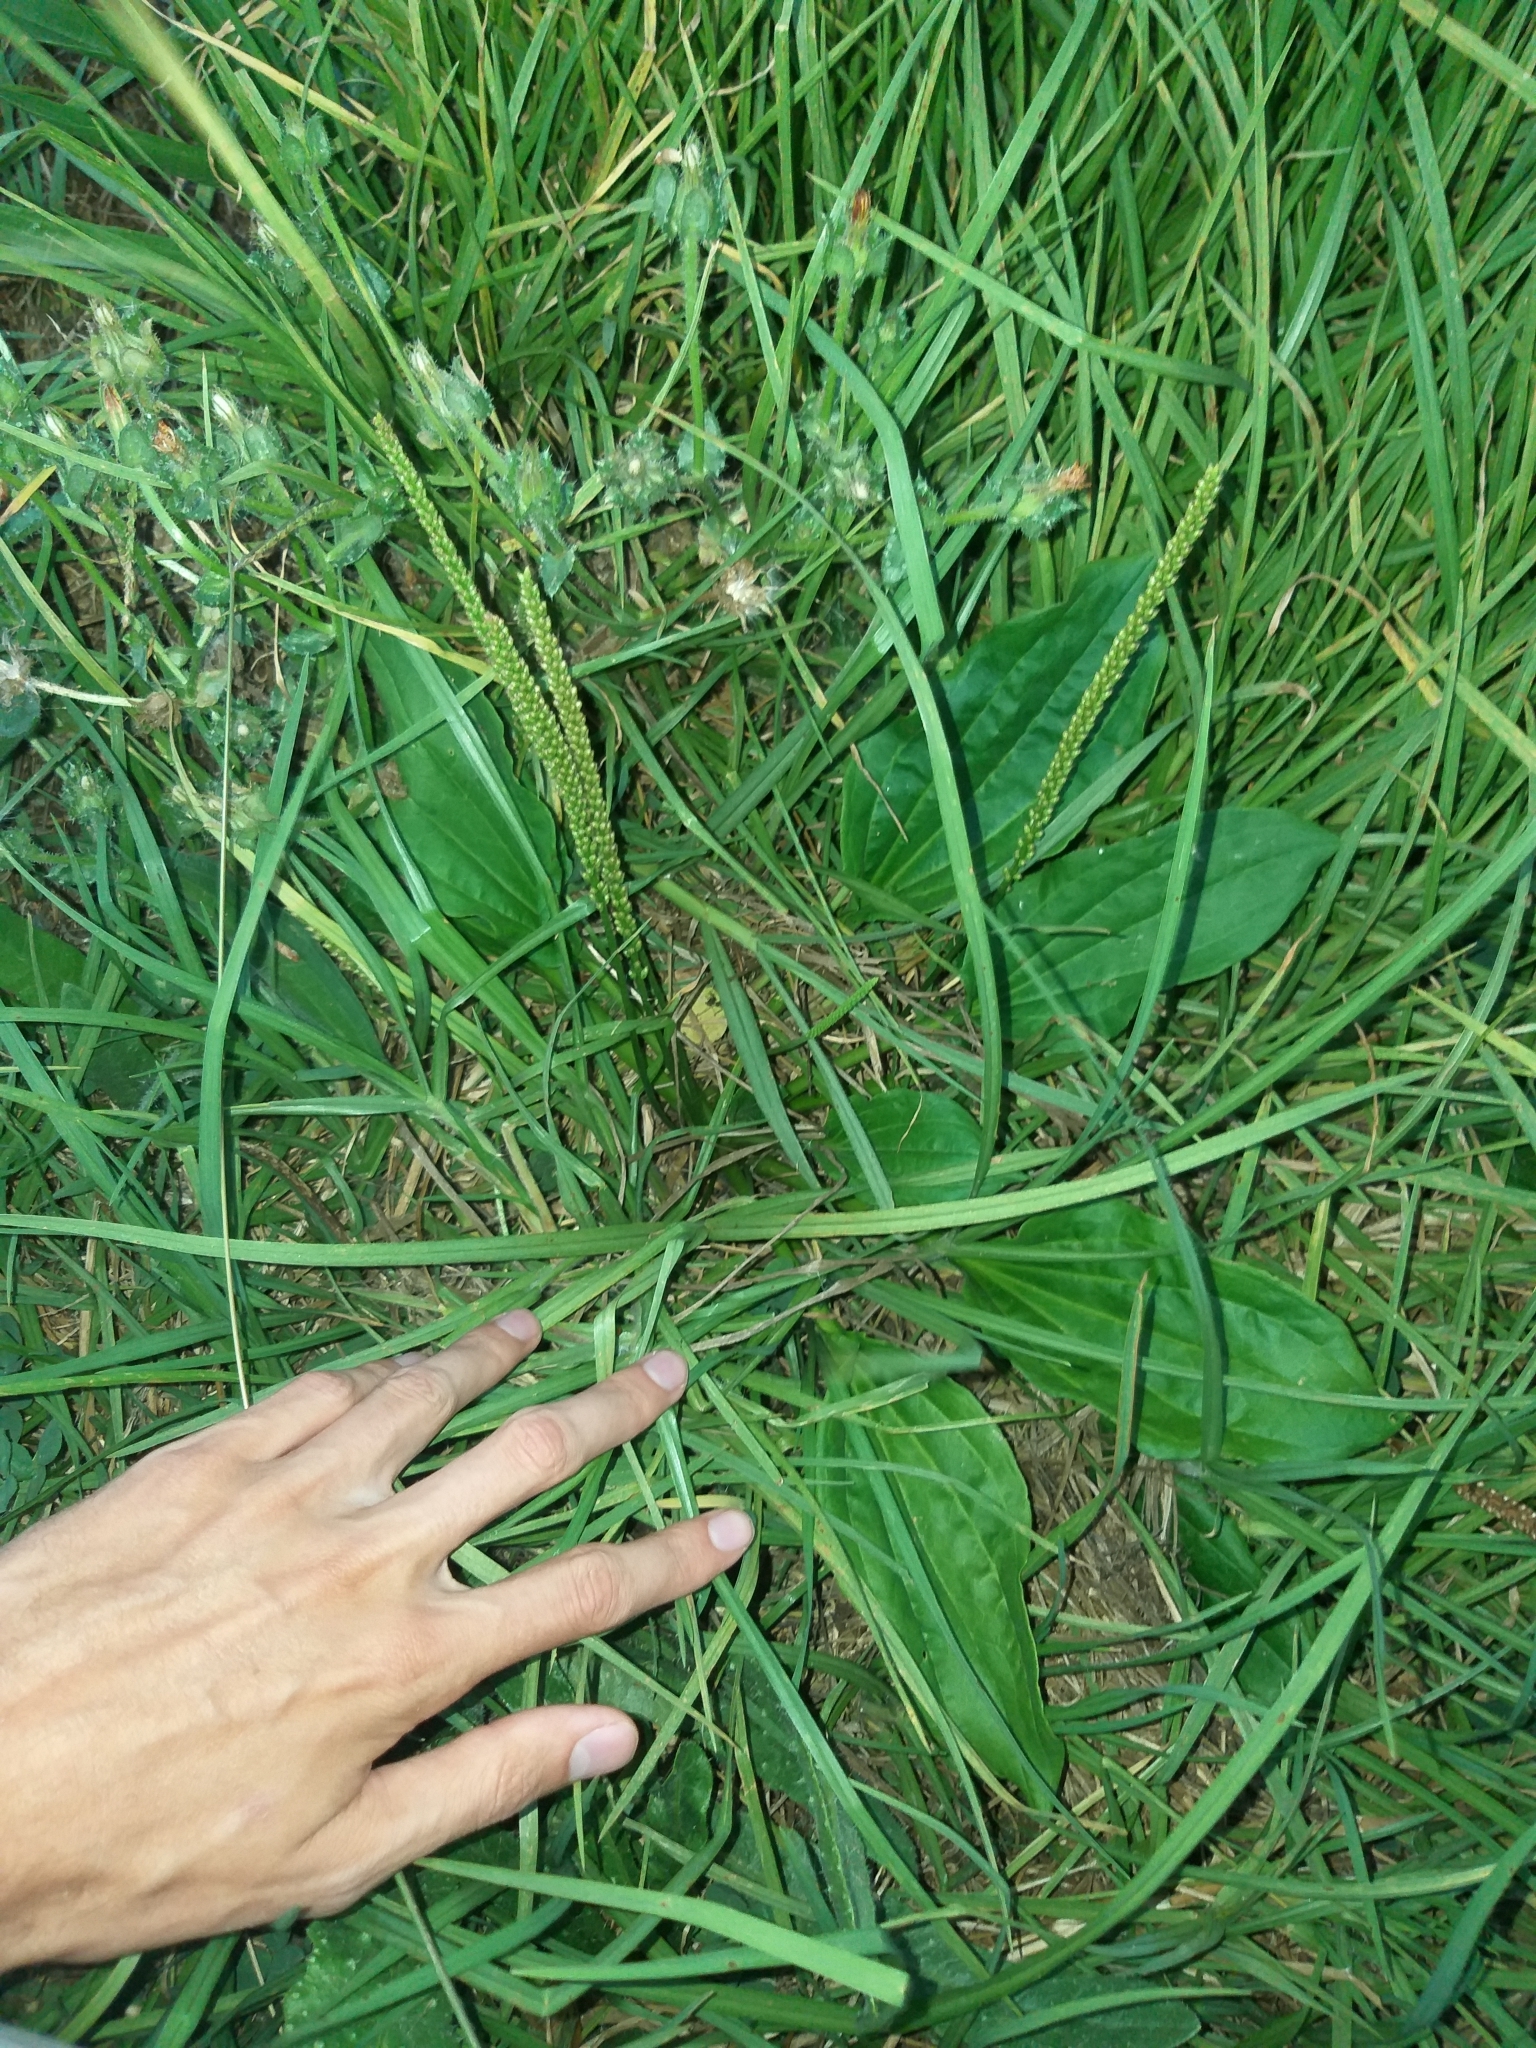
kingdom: Plantae
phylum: Tracheophyta
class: Magnoliopsida
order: Lamiales
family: Plantaginaceae
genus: Plantago
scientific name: Plantago major
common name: Common plantain
